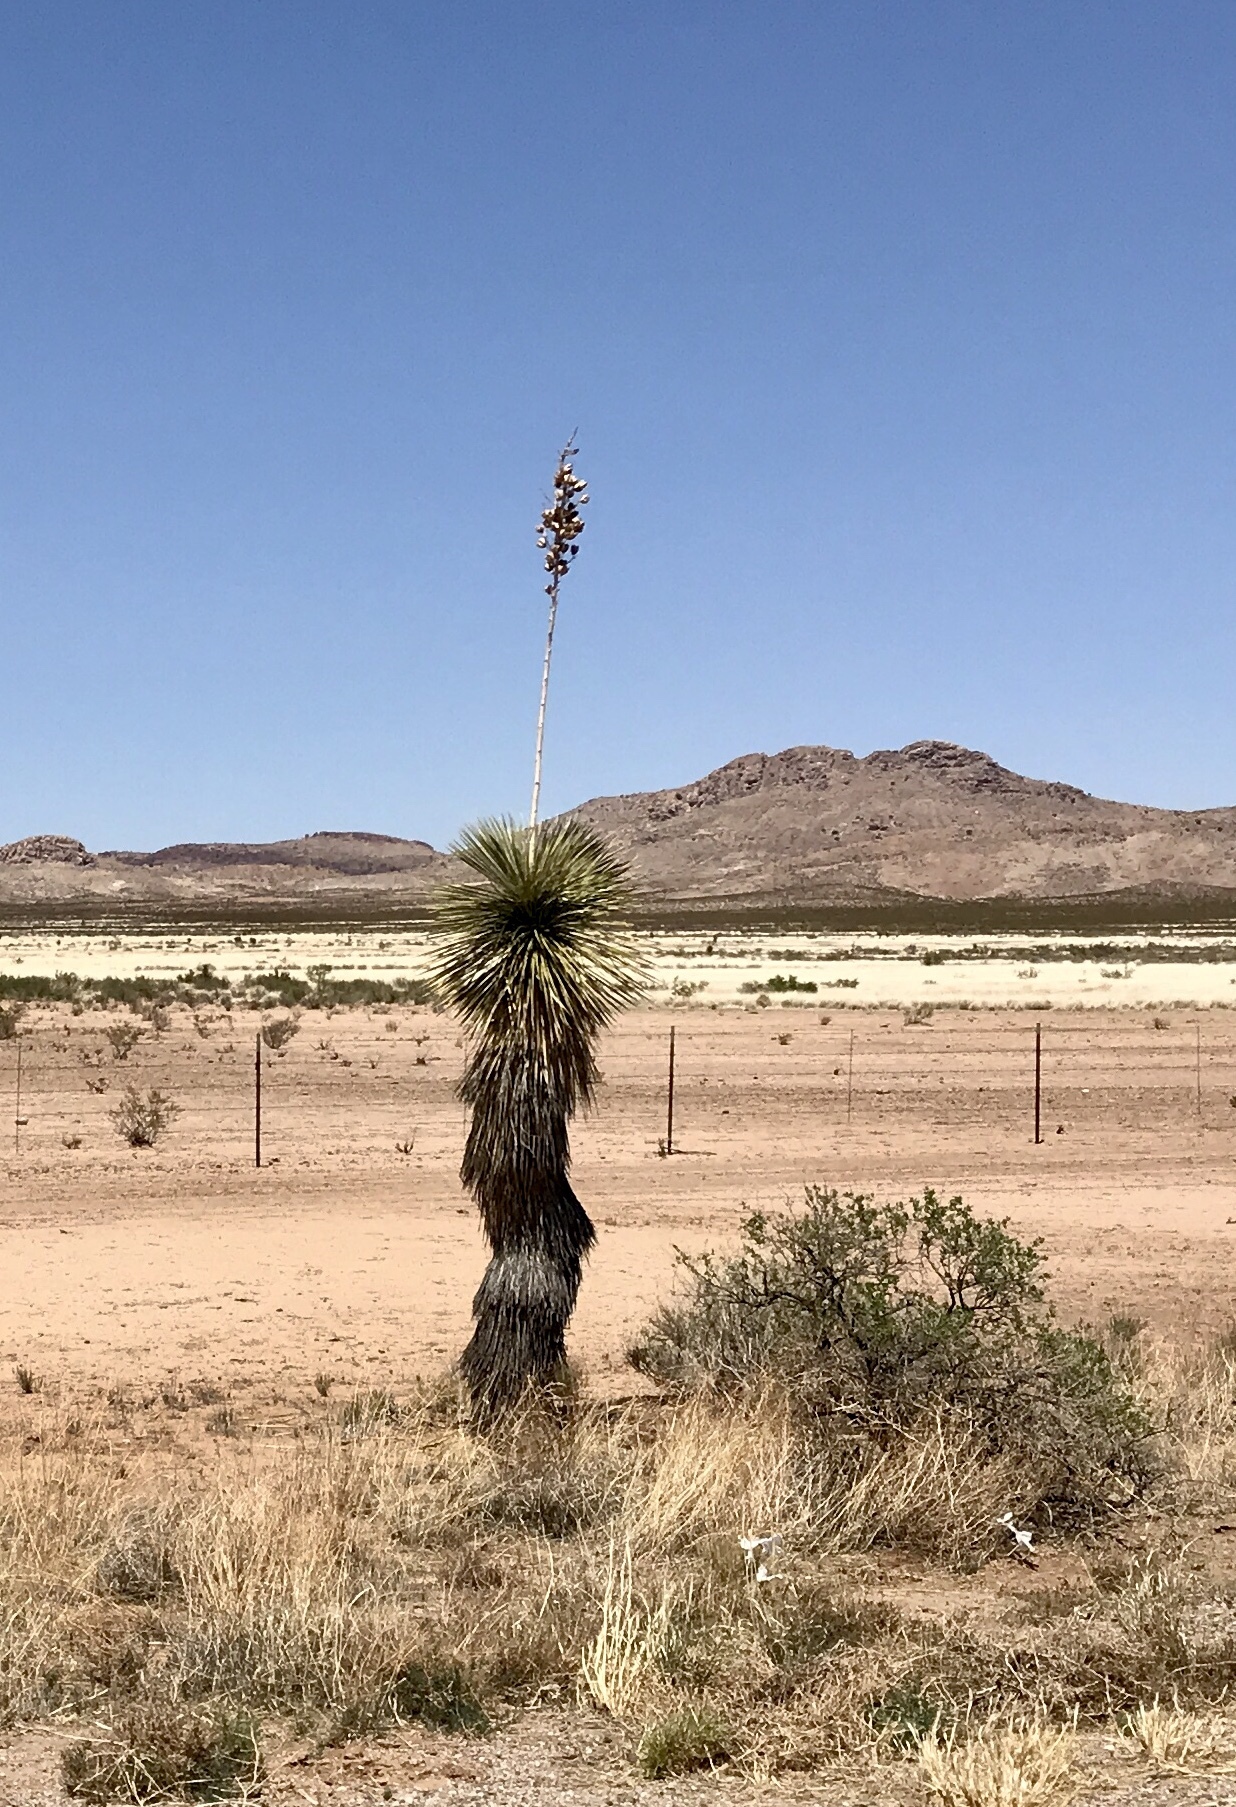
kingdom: Plantae
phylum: Tracheophyta
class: Liliopsida
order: Asparagales
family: Asparagaceae
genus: Yucca
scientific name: Yucca elata
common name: Palmella
